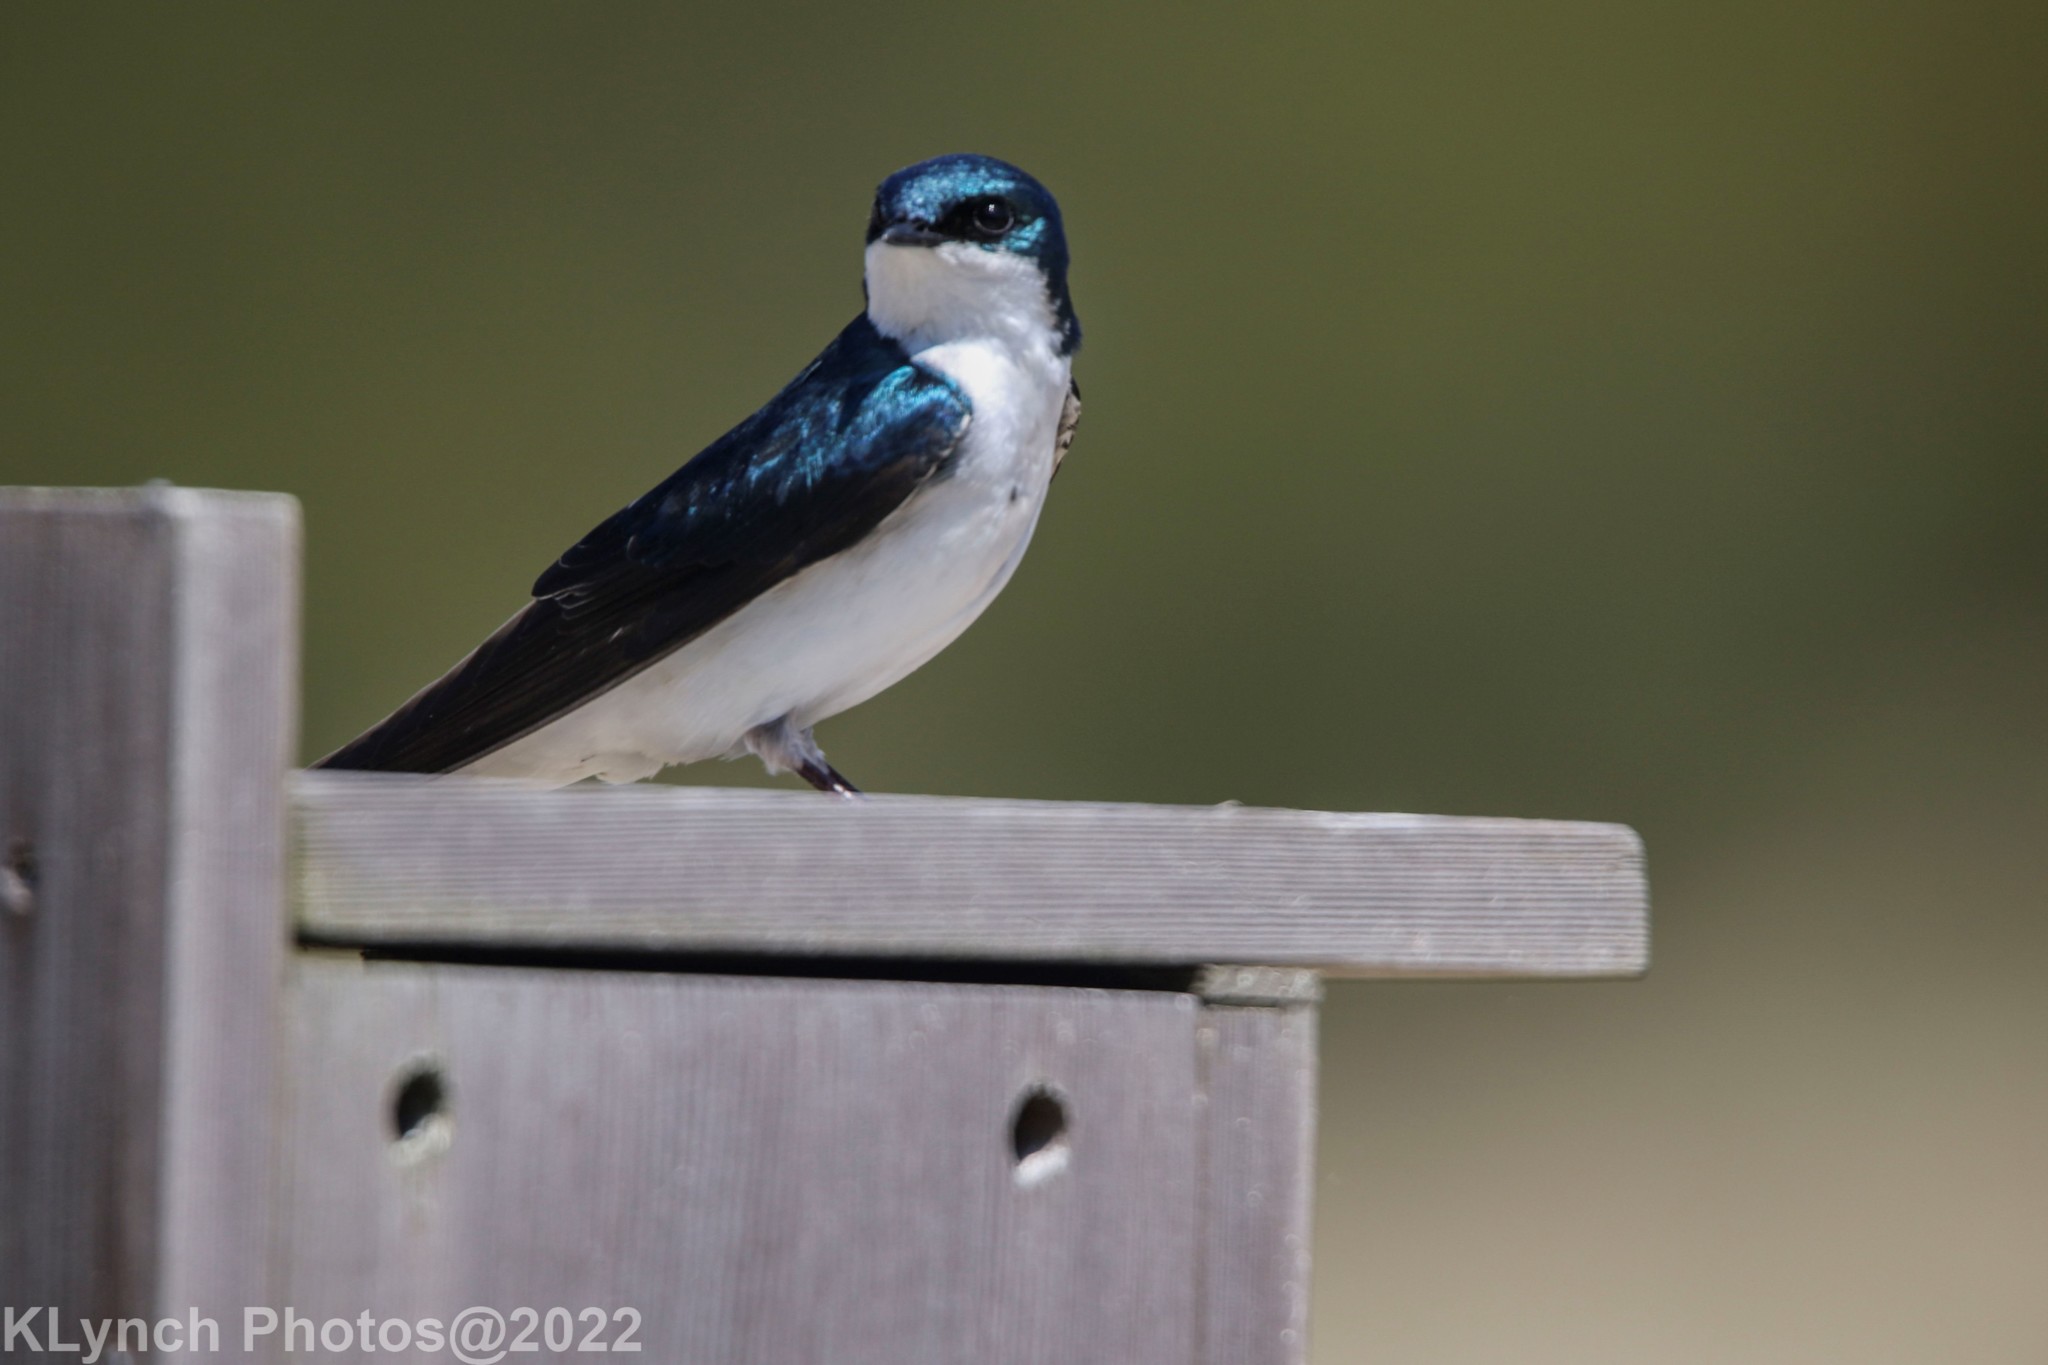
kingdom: Animalia
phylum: Chordata
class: Aves
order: Passeriformes
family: Hirundinidae
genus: Tachycineta
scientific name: Tachycineta bicolor
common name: Tree swallow
